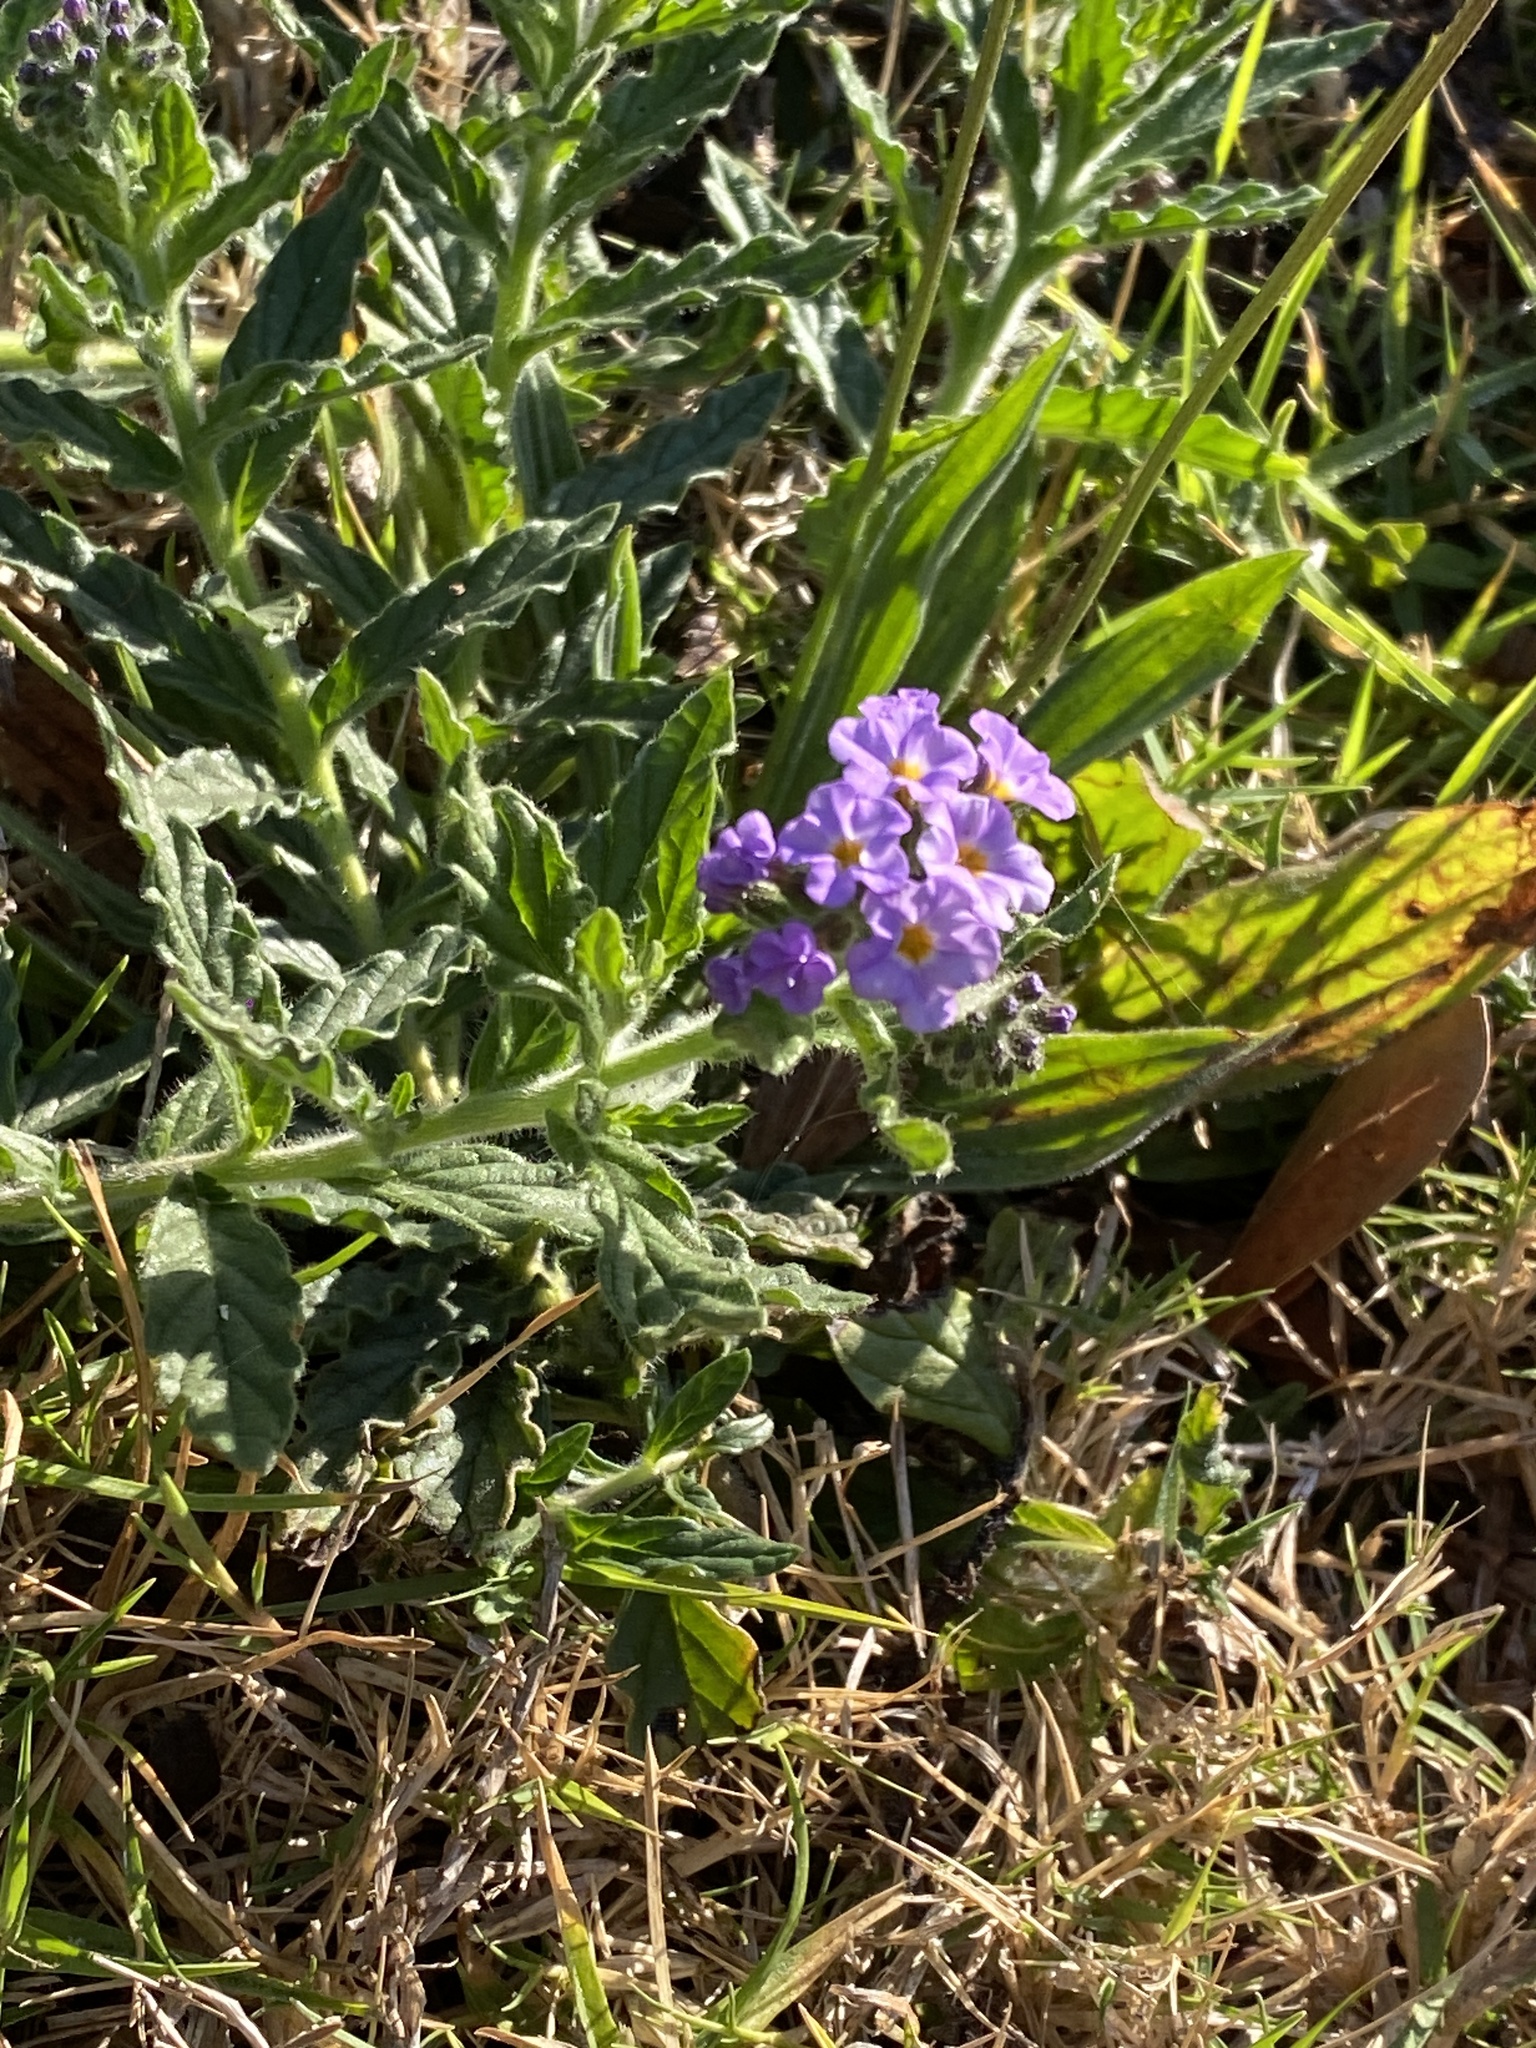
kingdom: Plantae
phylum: Tracheophyta
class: Magnoliopsida
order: Boraginales
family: Heliotropiaceae
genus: Heliotropium
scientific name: Heliotropium amplexicaule
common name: Clasping heliotrope
